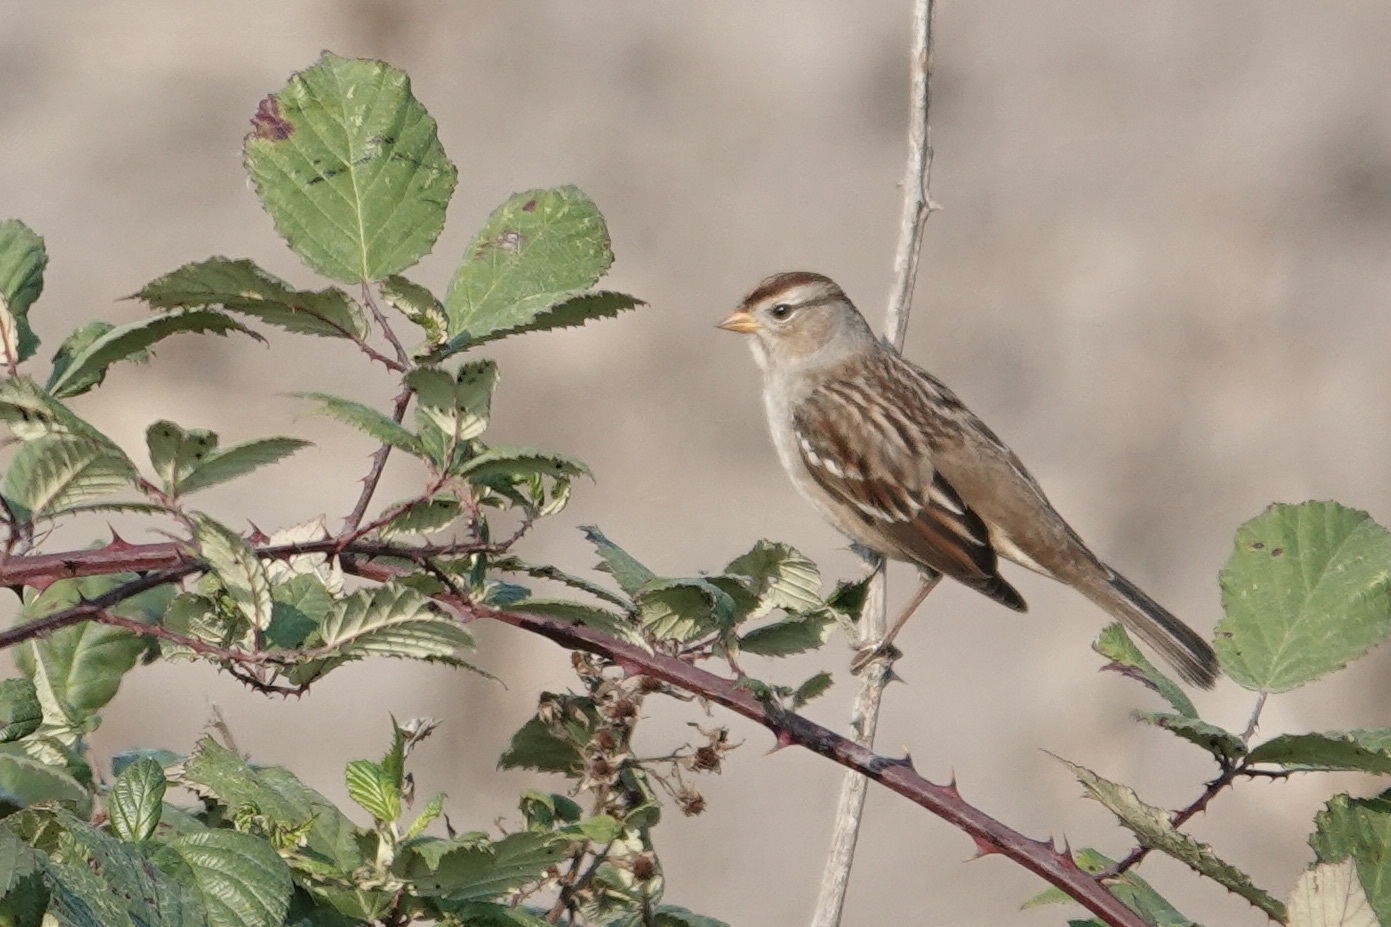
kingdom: Animalia
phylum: Chordata
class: Aves
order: Passeriformes
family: Passerellidae
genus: Zonotrichia
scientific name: Zonotrichia leucophrys
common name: White-crowned sparrow
